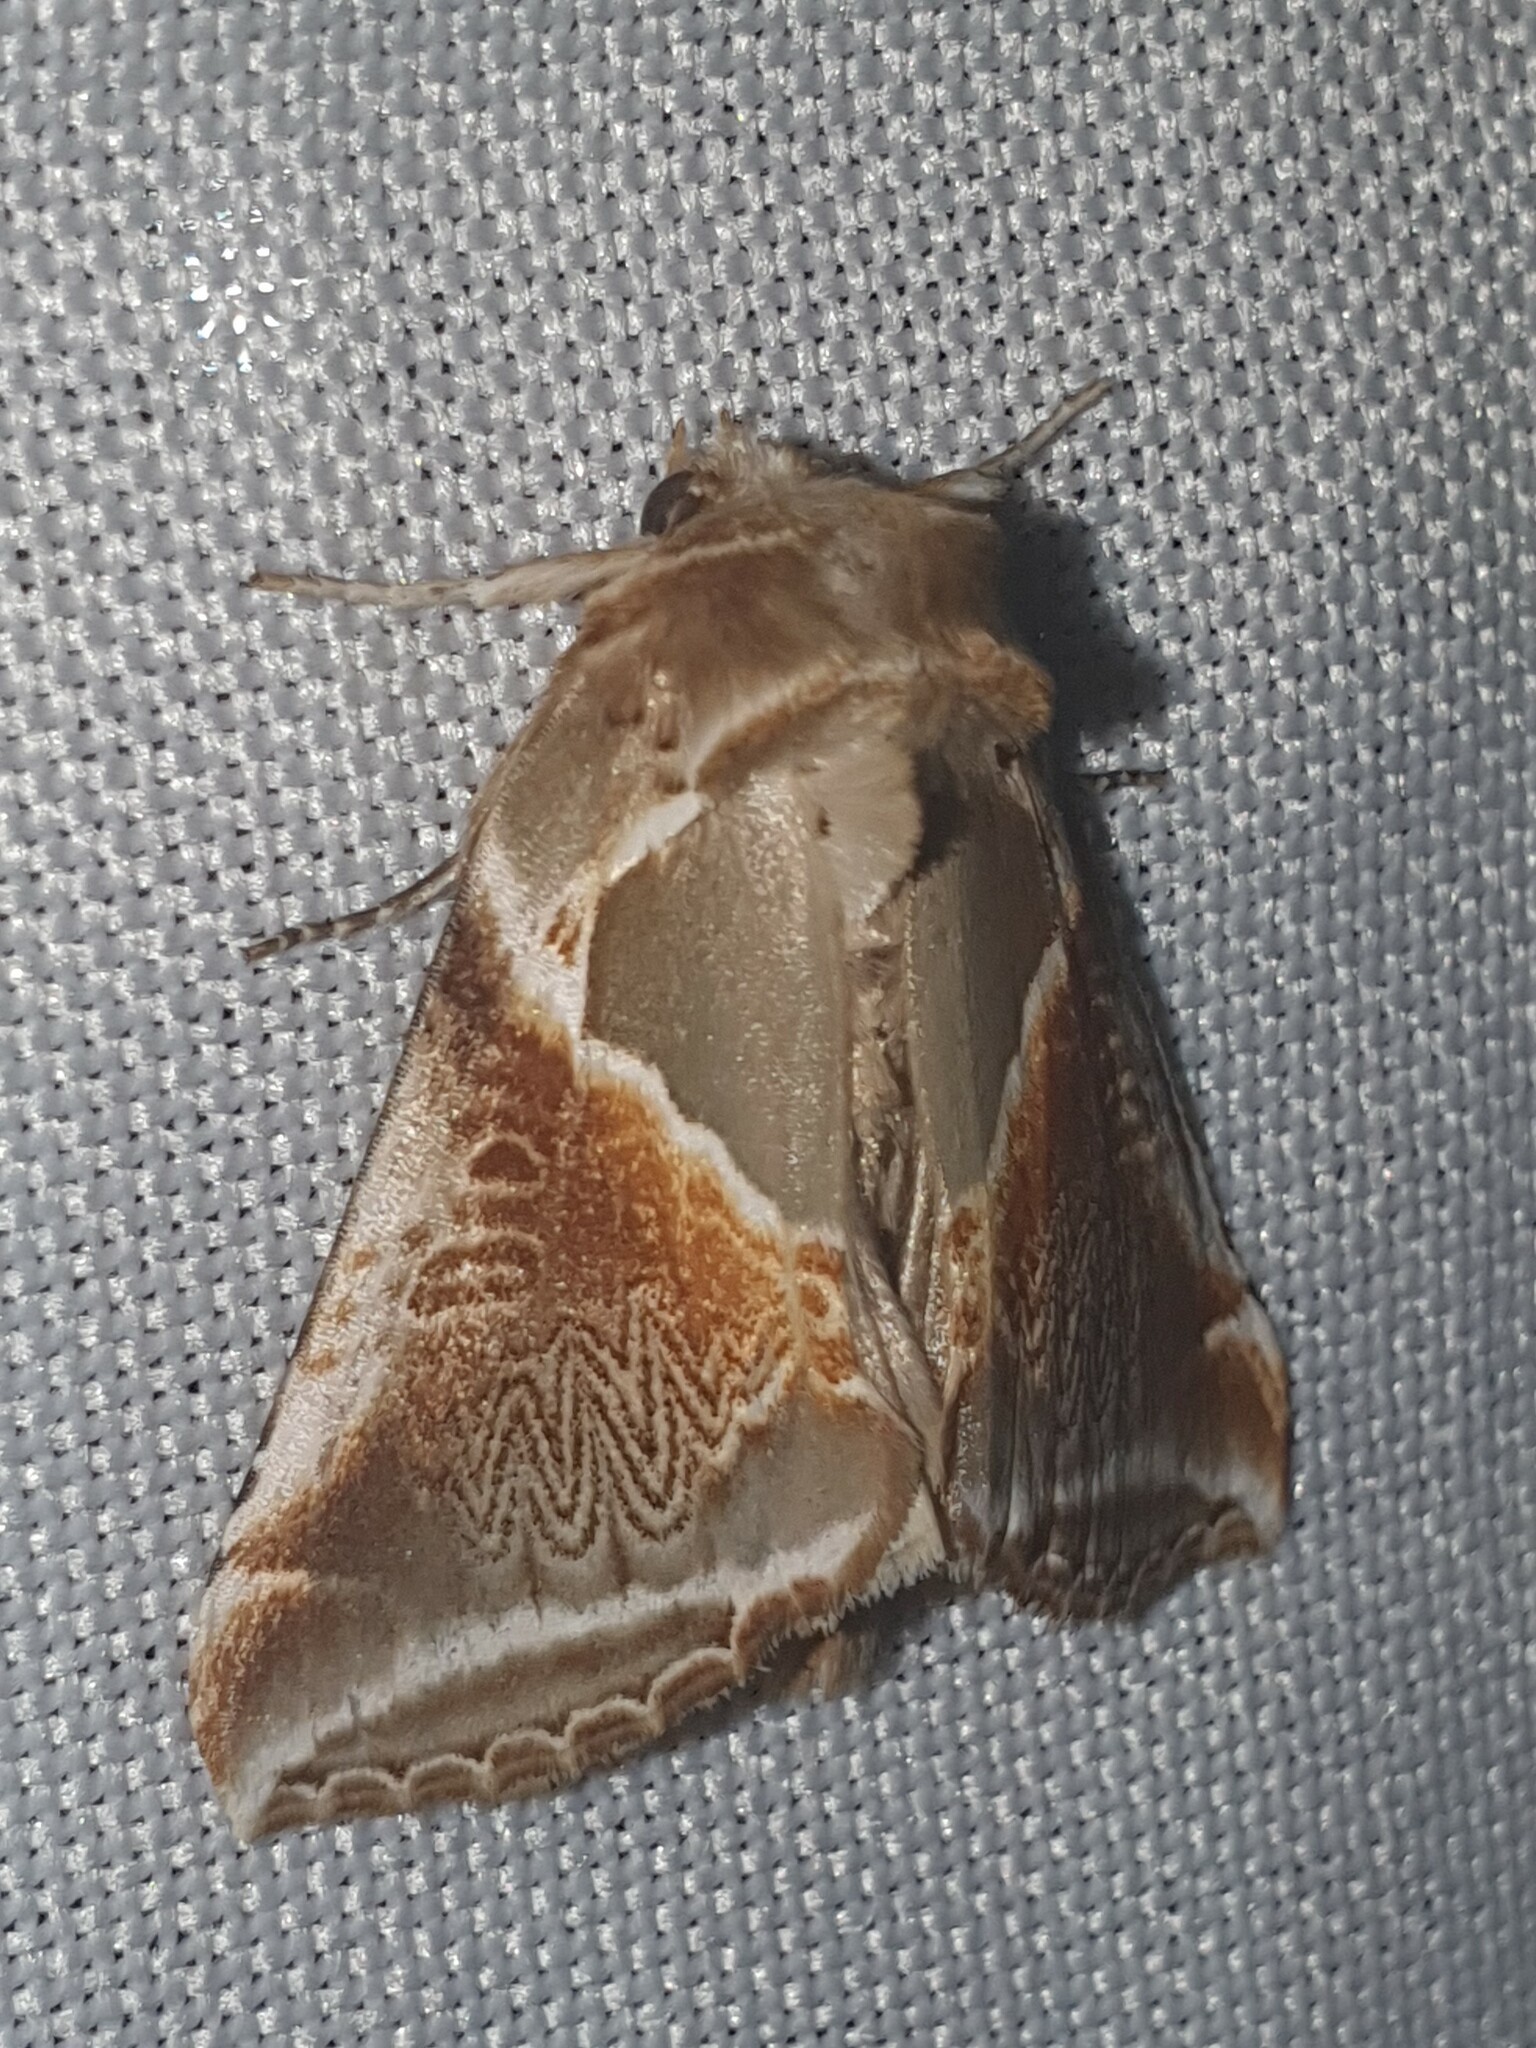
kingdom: Animalia
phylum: Arthropoda
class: Insecta
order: Lepidoptera
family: Drepanidae
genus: Habrosyne
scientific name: Habrosyne pyritoides
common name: Buff arches
